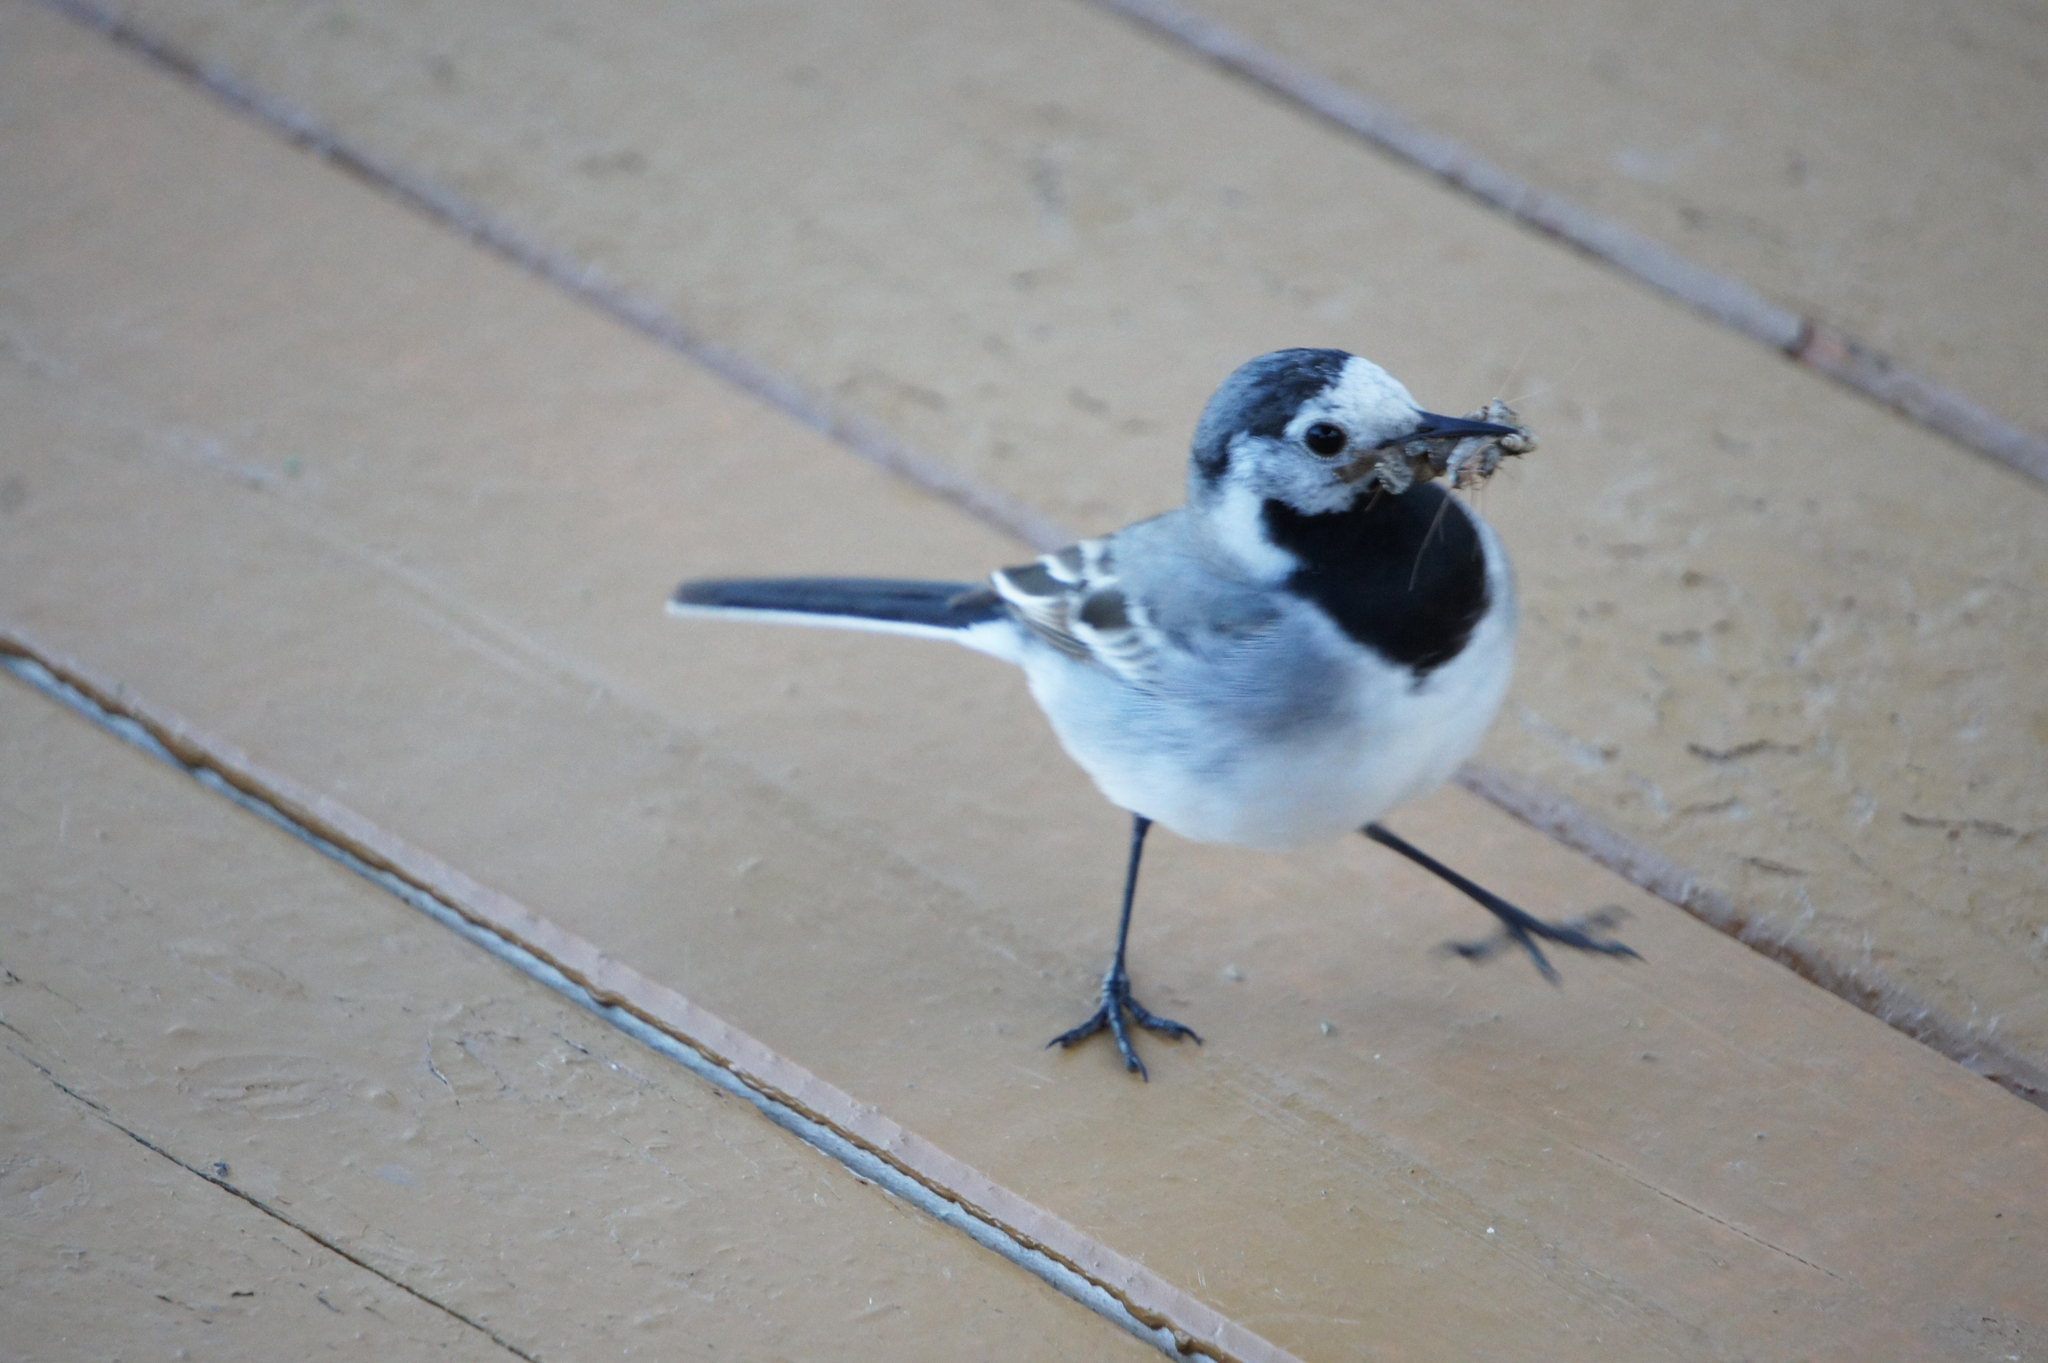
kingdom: Animalia
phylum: Chordata
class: Aves
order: Passeriformes
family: Motacillidae
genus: Motacilla
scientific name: Motacilla alba
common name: White wagtail
